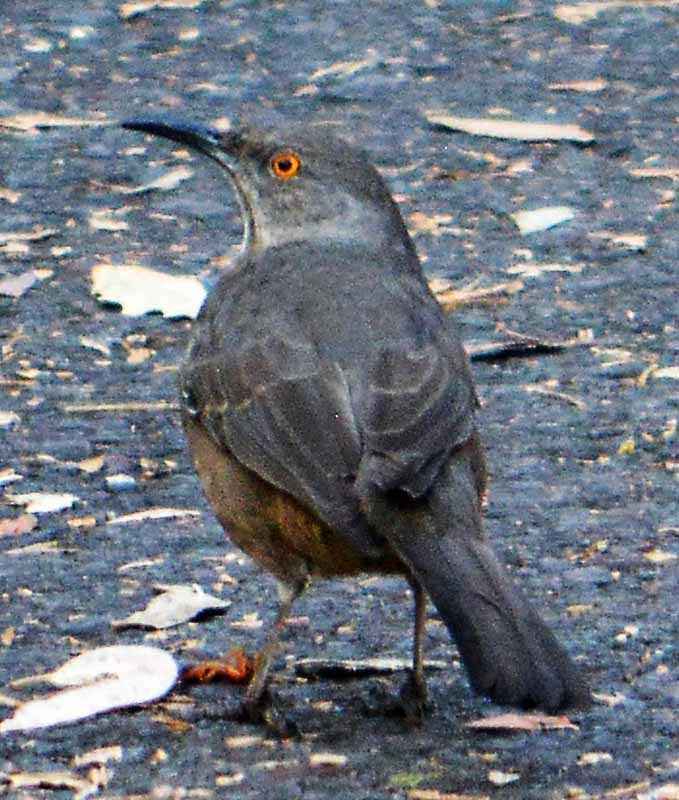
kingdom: Animalia
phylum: Chordata
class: Aves
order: Passeriformes
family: Mimidae
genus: Toxostoma
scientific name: Toxostoma curvirostre
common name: Curve-billed thrasher
